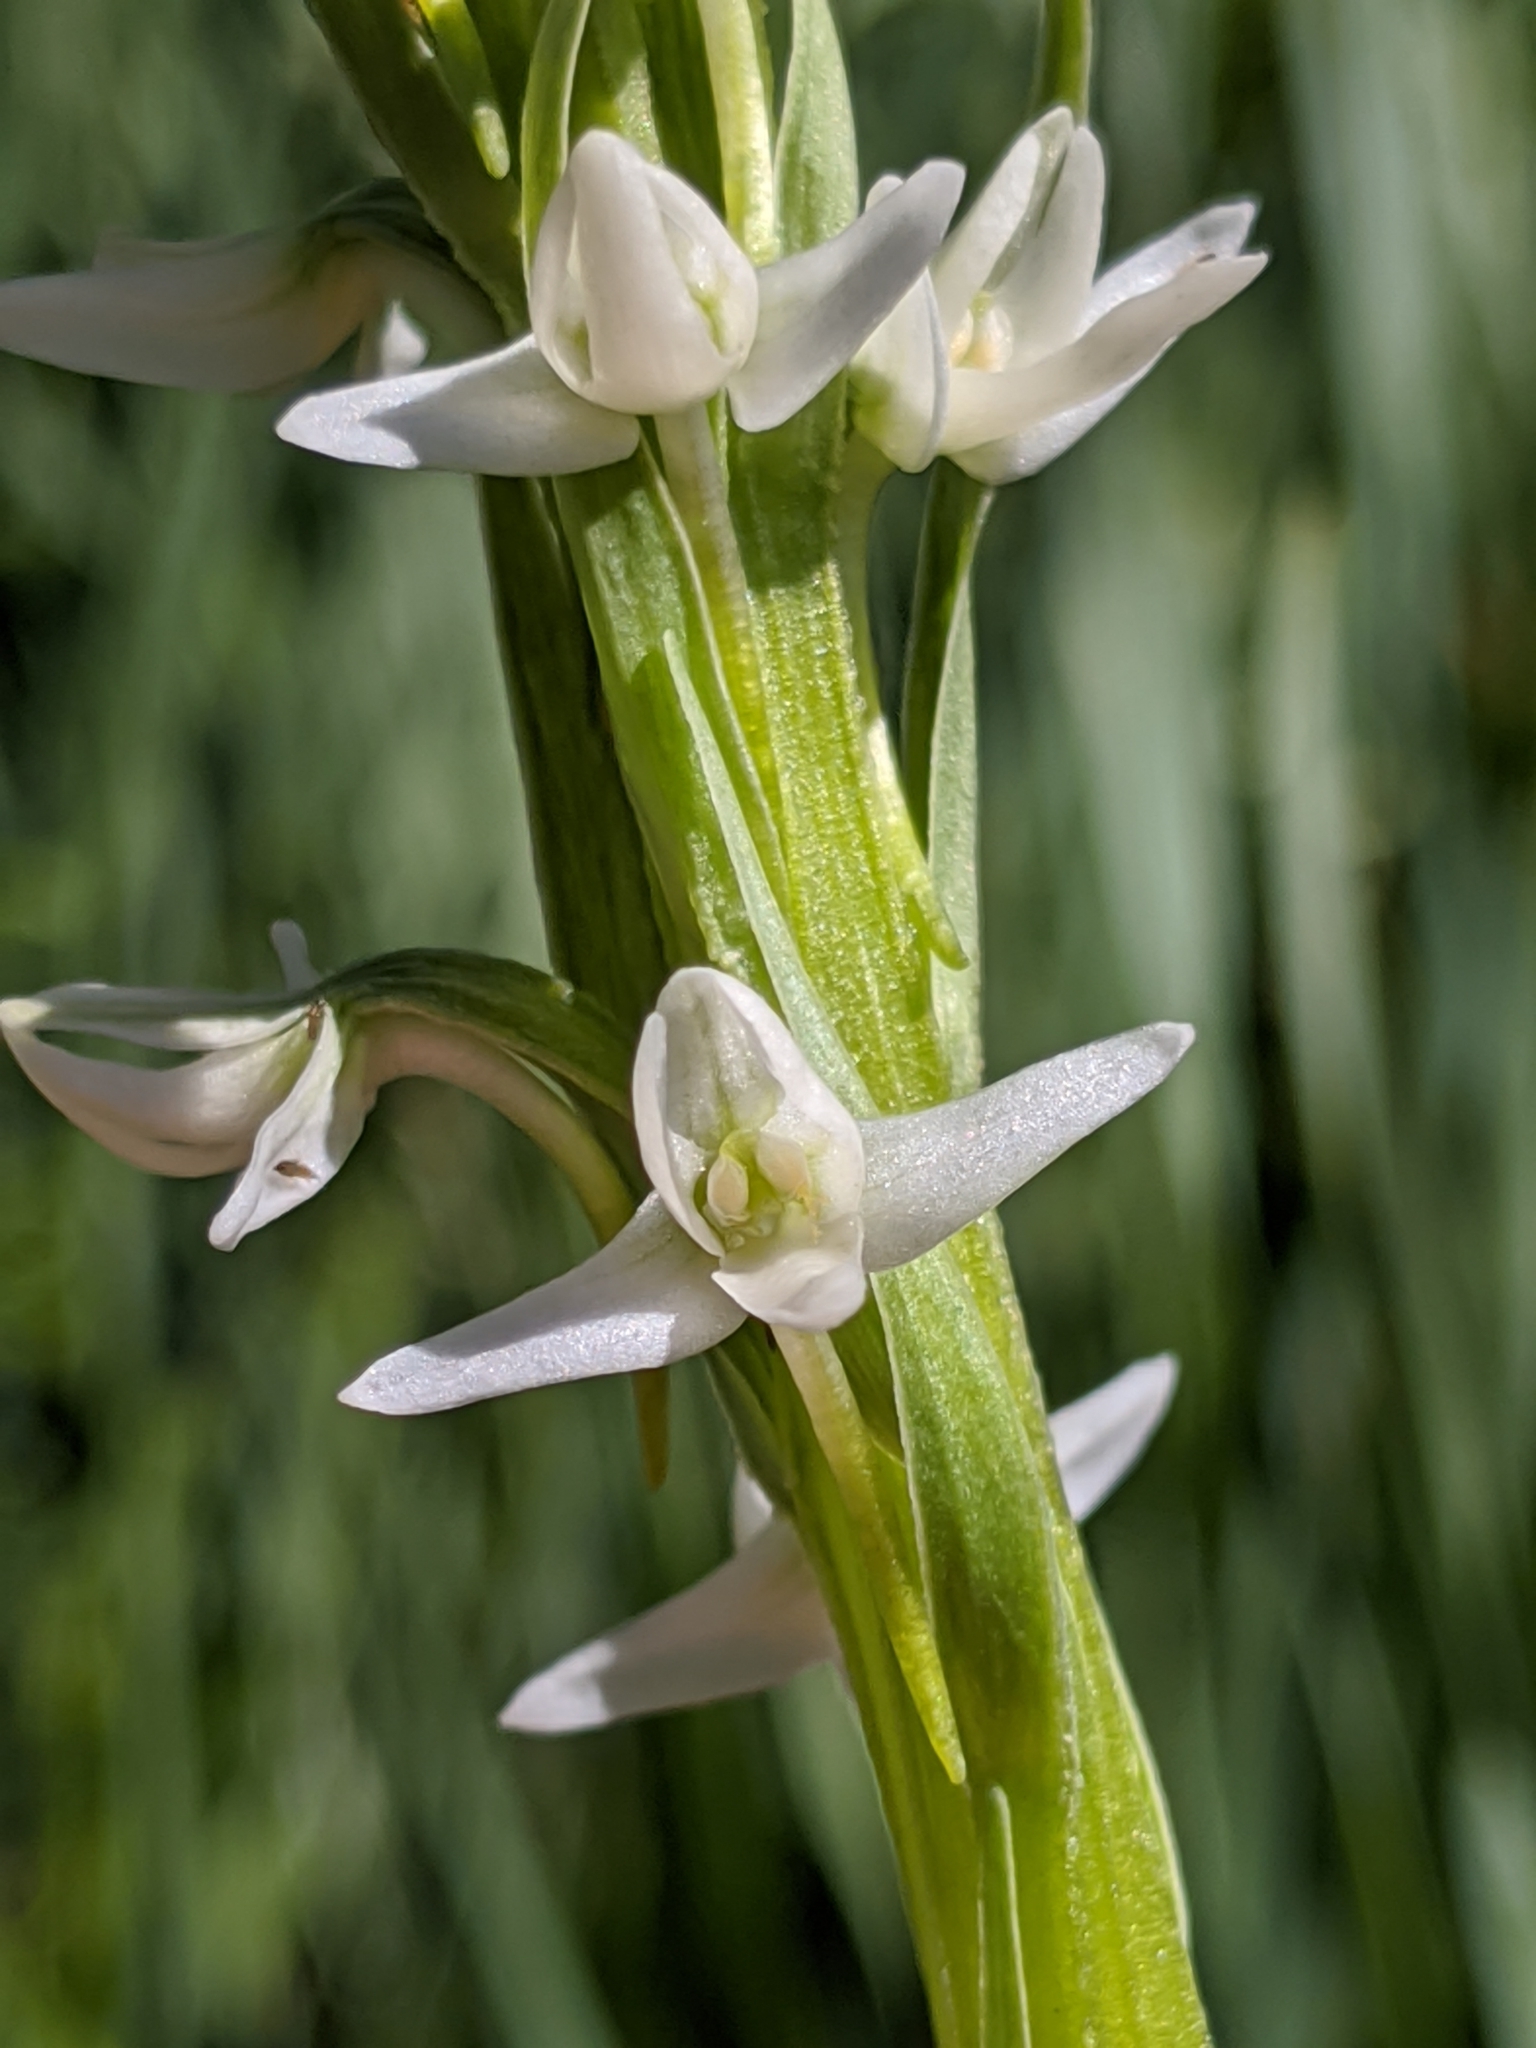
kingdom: Plantae
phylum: Tracheophyta
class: Liliopsida
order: Asparagales
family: Orchidaceae
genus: Platanthera
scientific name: Platanthera dilatata
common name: Bog candles
